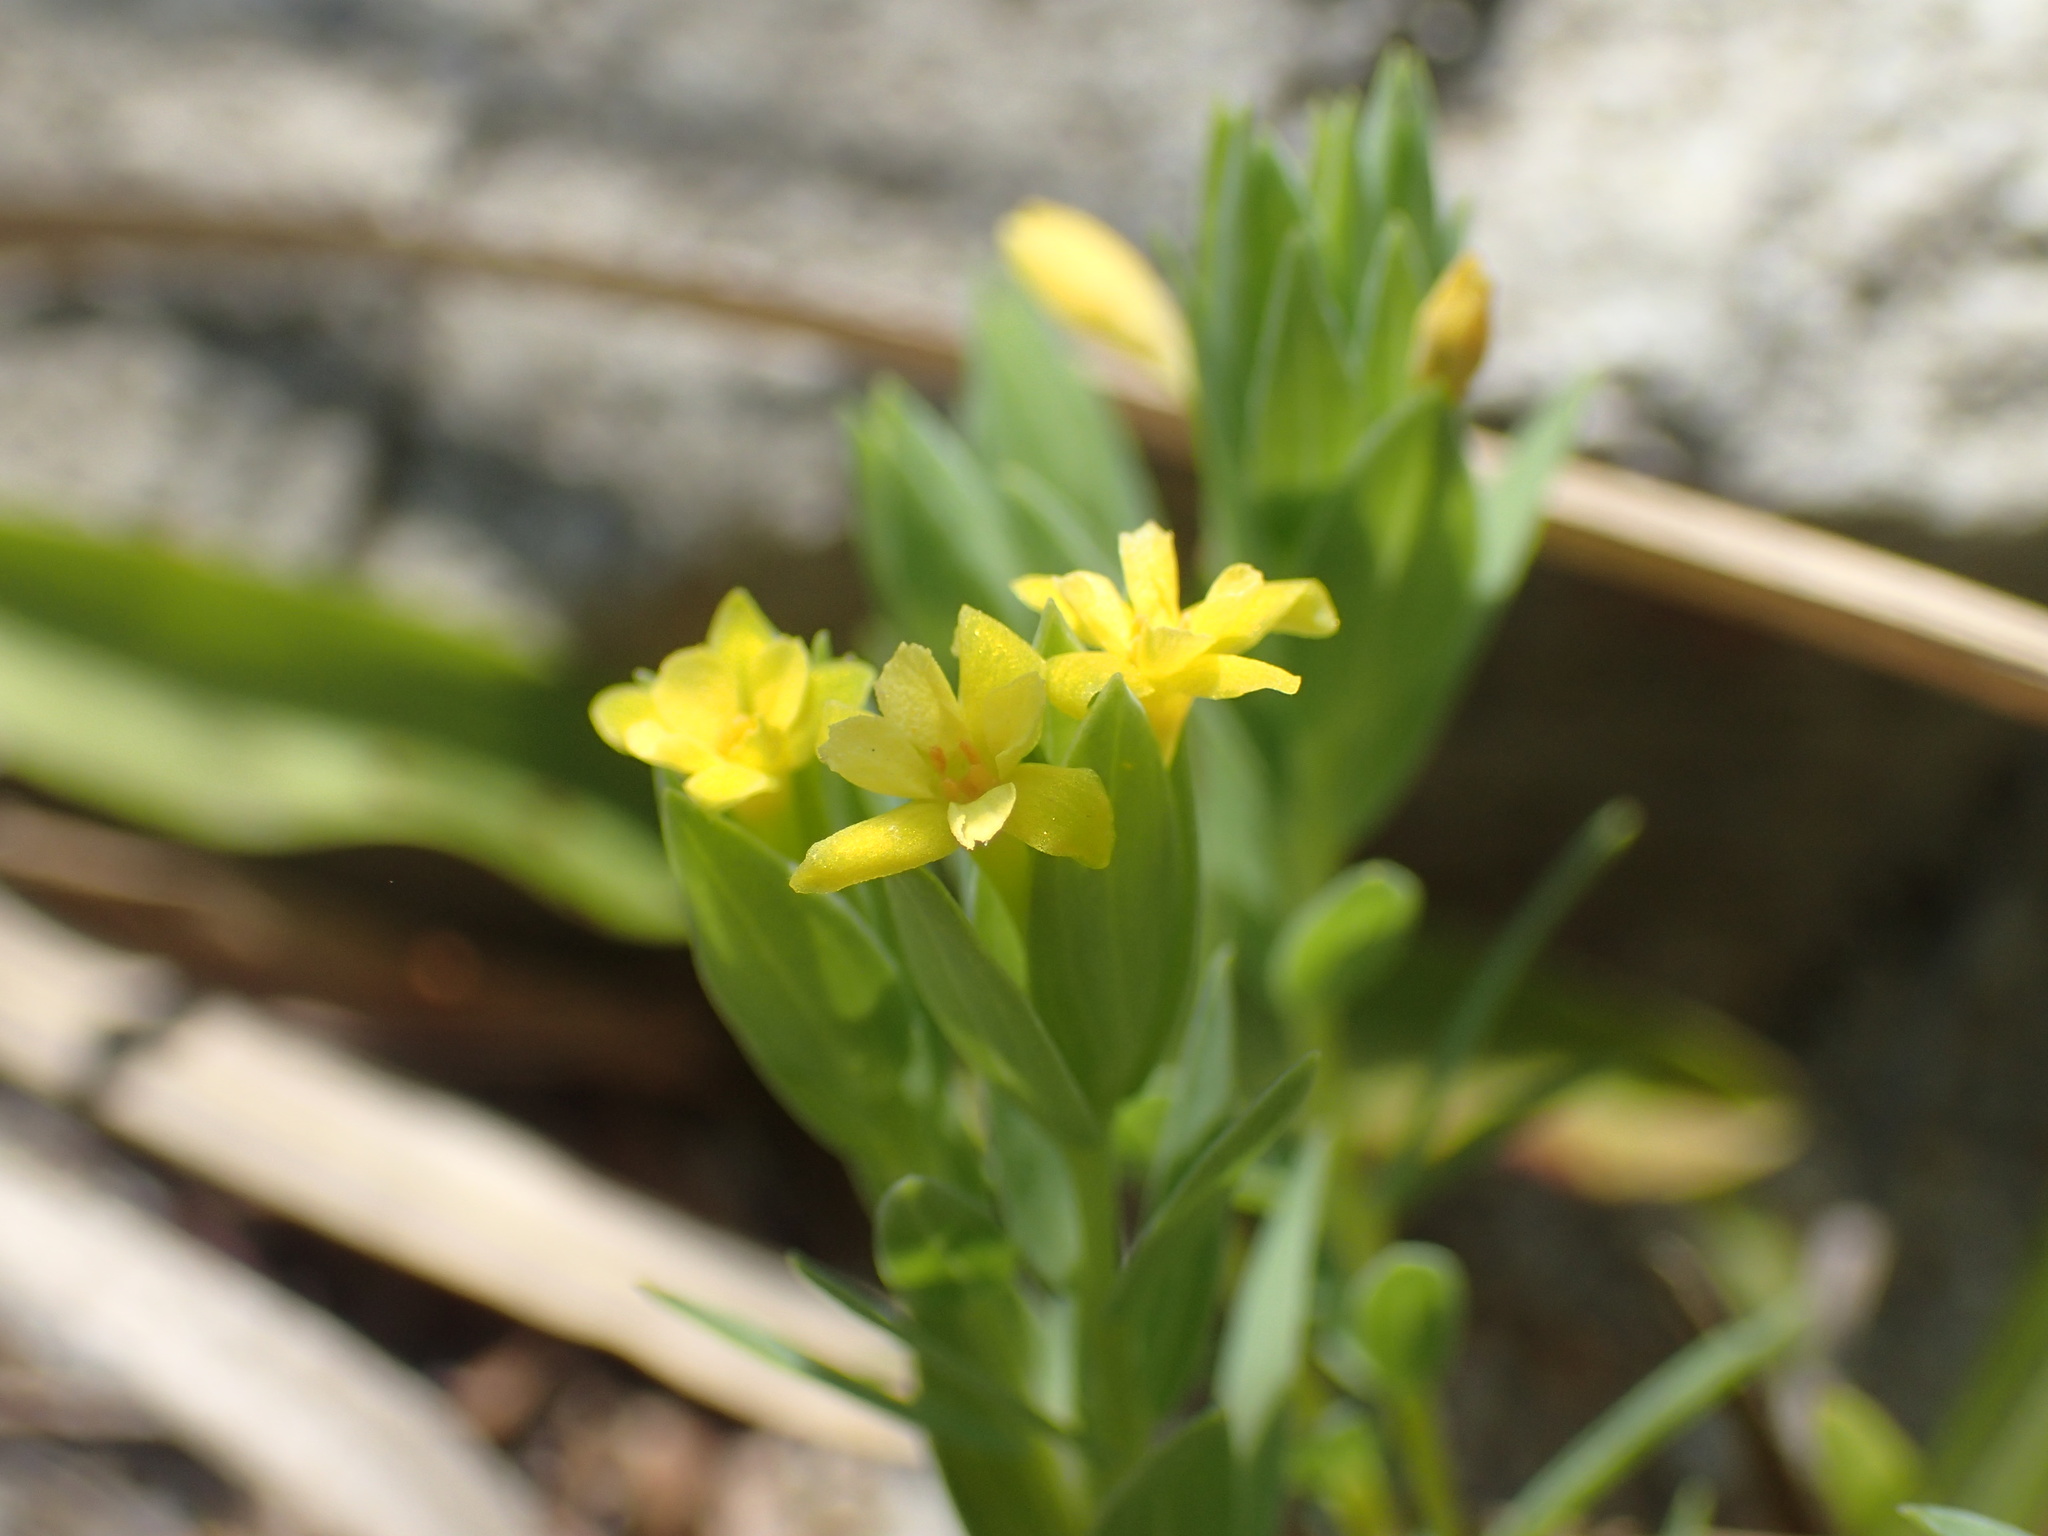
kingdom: Plantae
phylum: Tracheophyta
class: Magnoliopsida
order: Malvales
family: Thymelaeaceae
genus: Gnidia
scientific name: Gnidia coriacea
